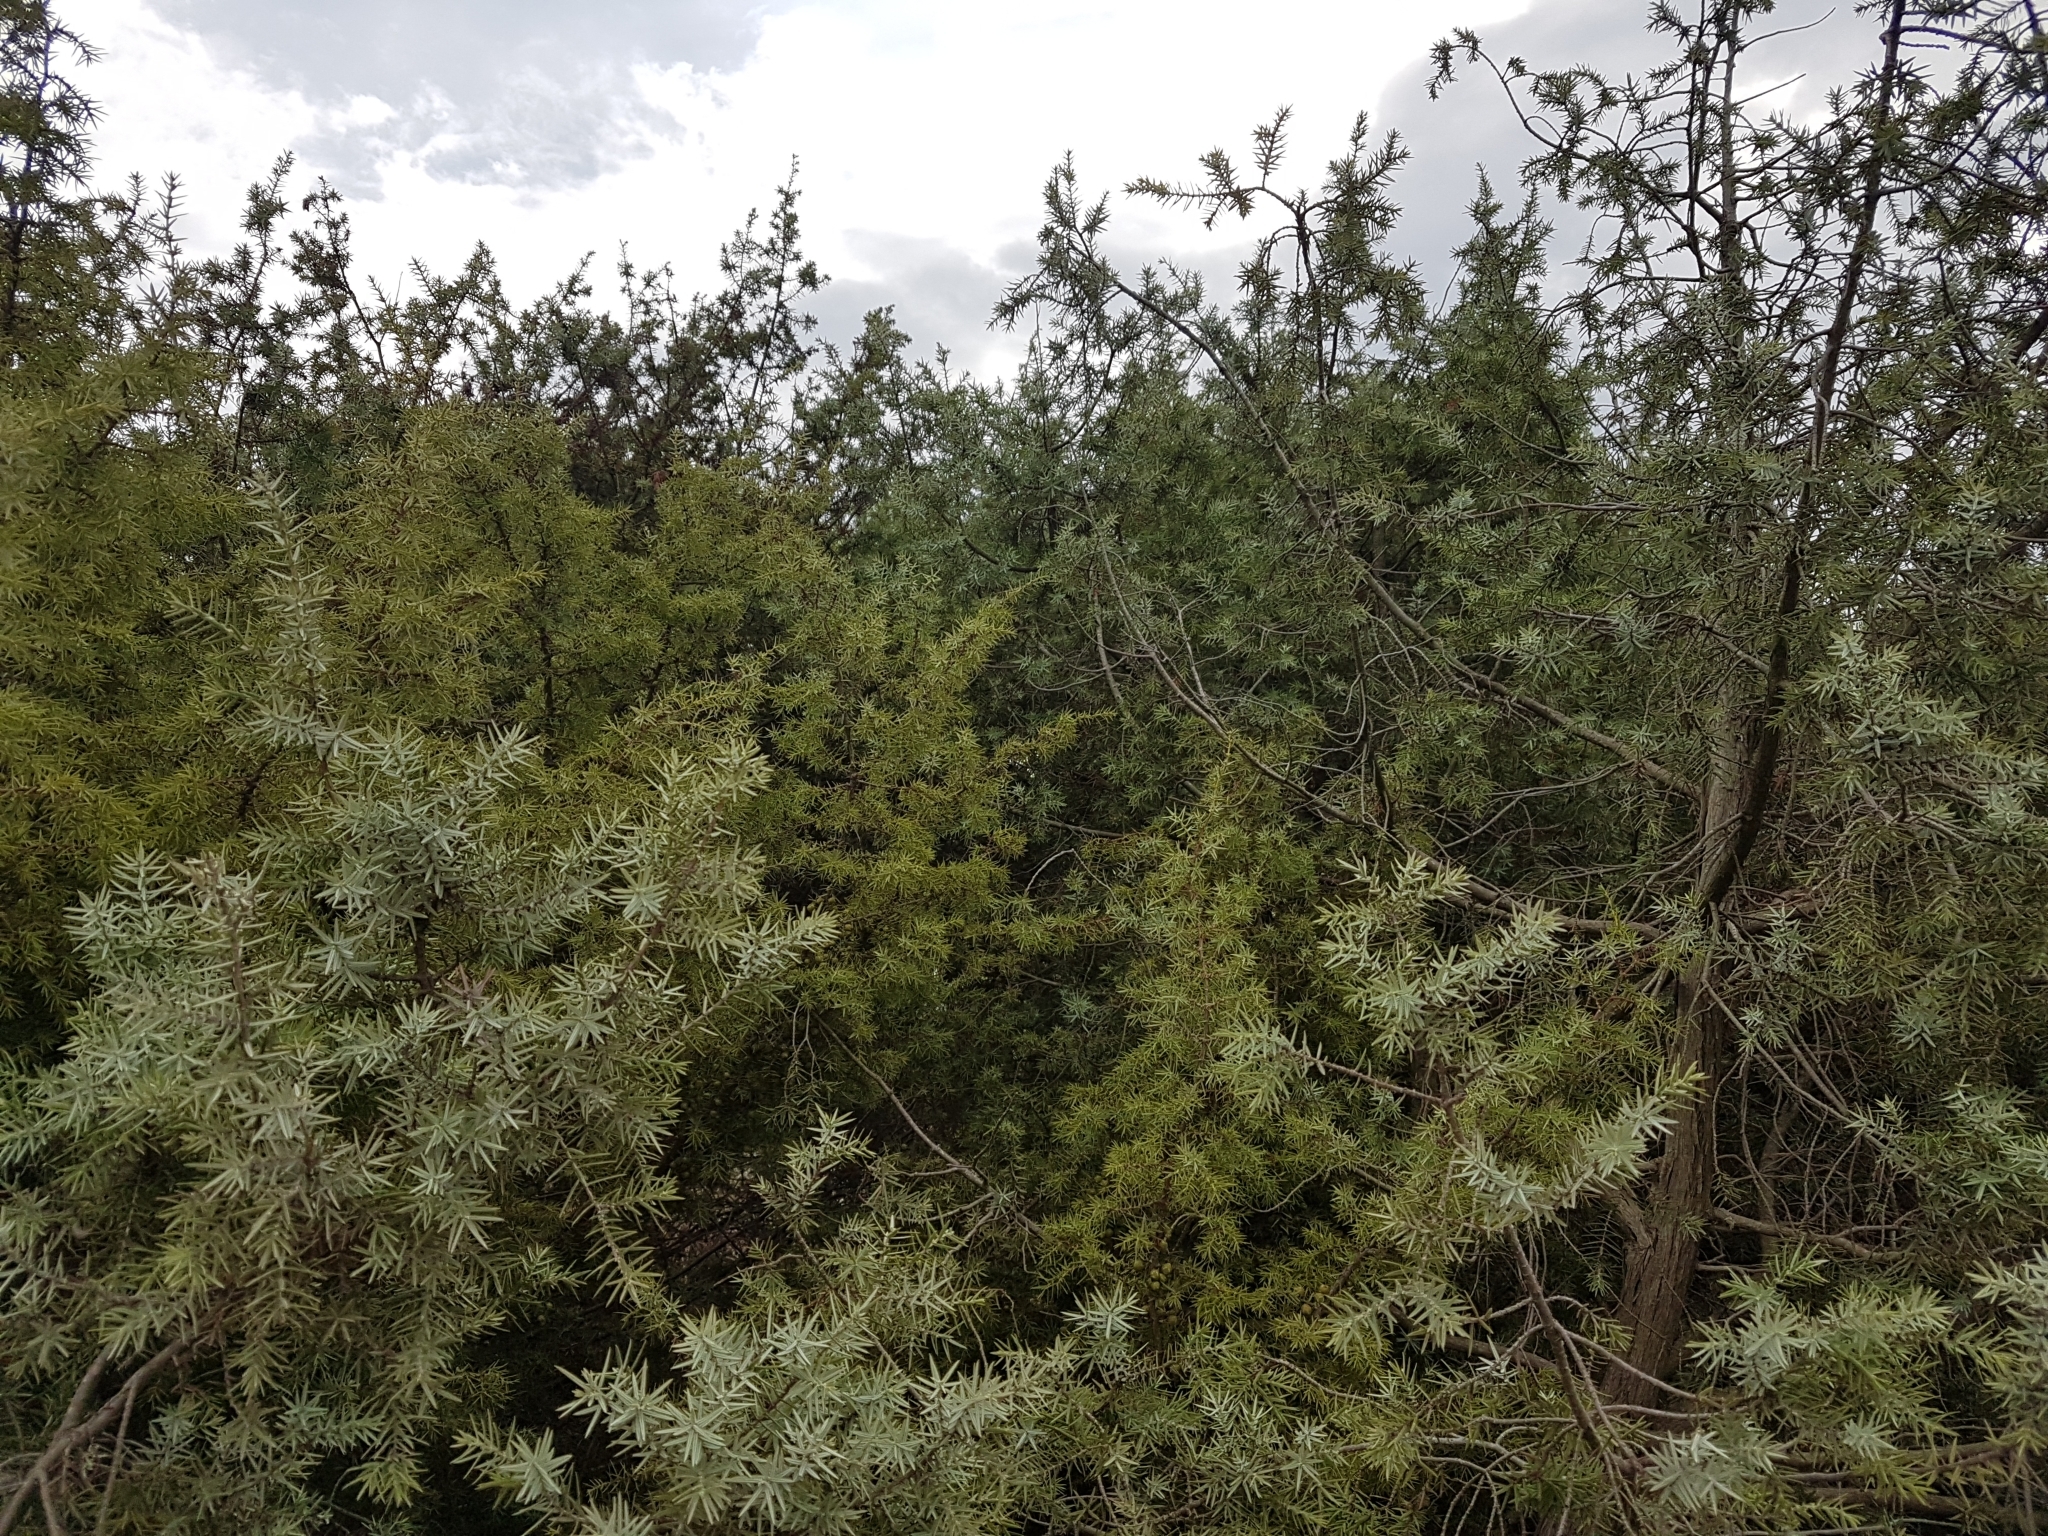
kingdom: Plantae
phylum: Tracheophyta
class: Pinopsida
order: Pinales
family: Cupressaceae
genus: Juniperus
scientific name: Juniperus oxycedrus
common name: Prickly juniper
